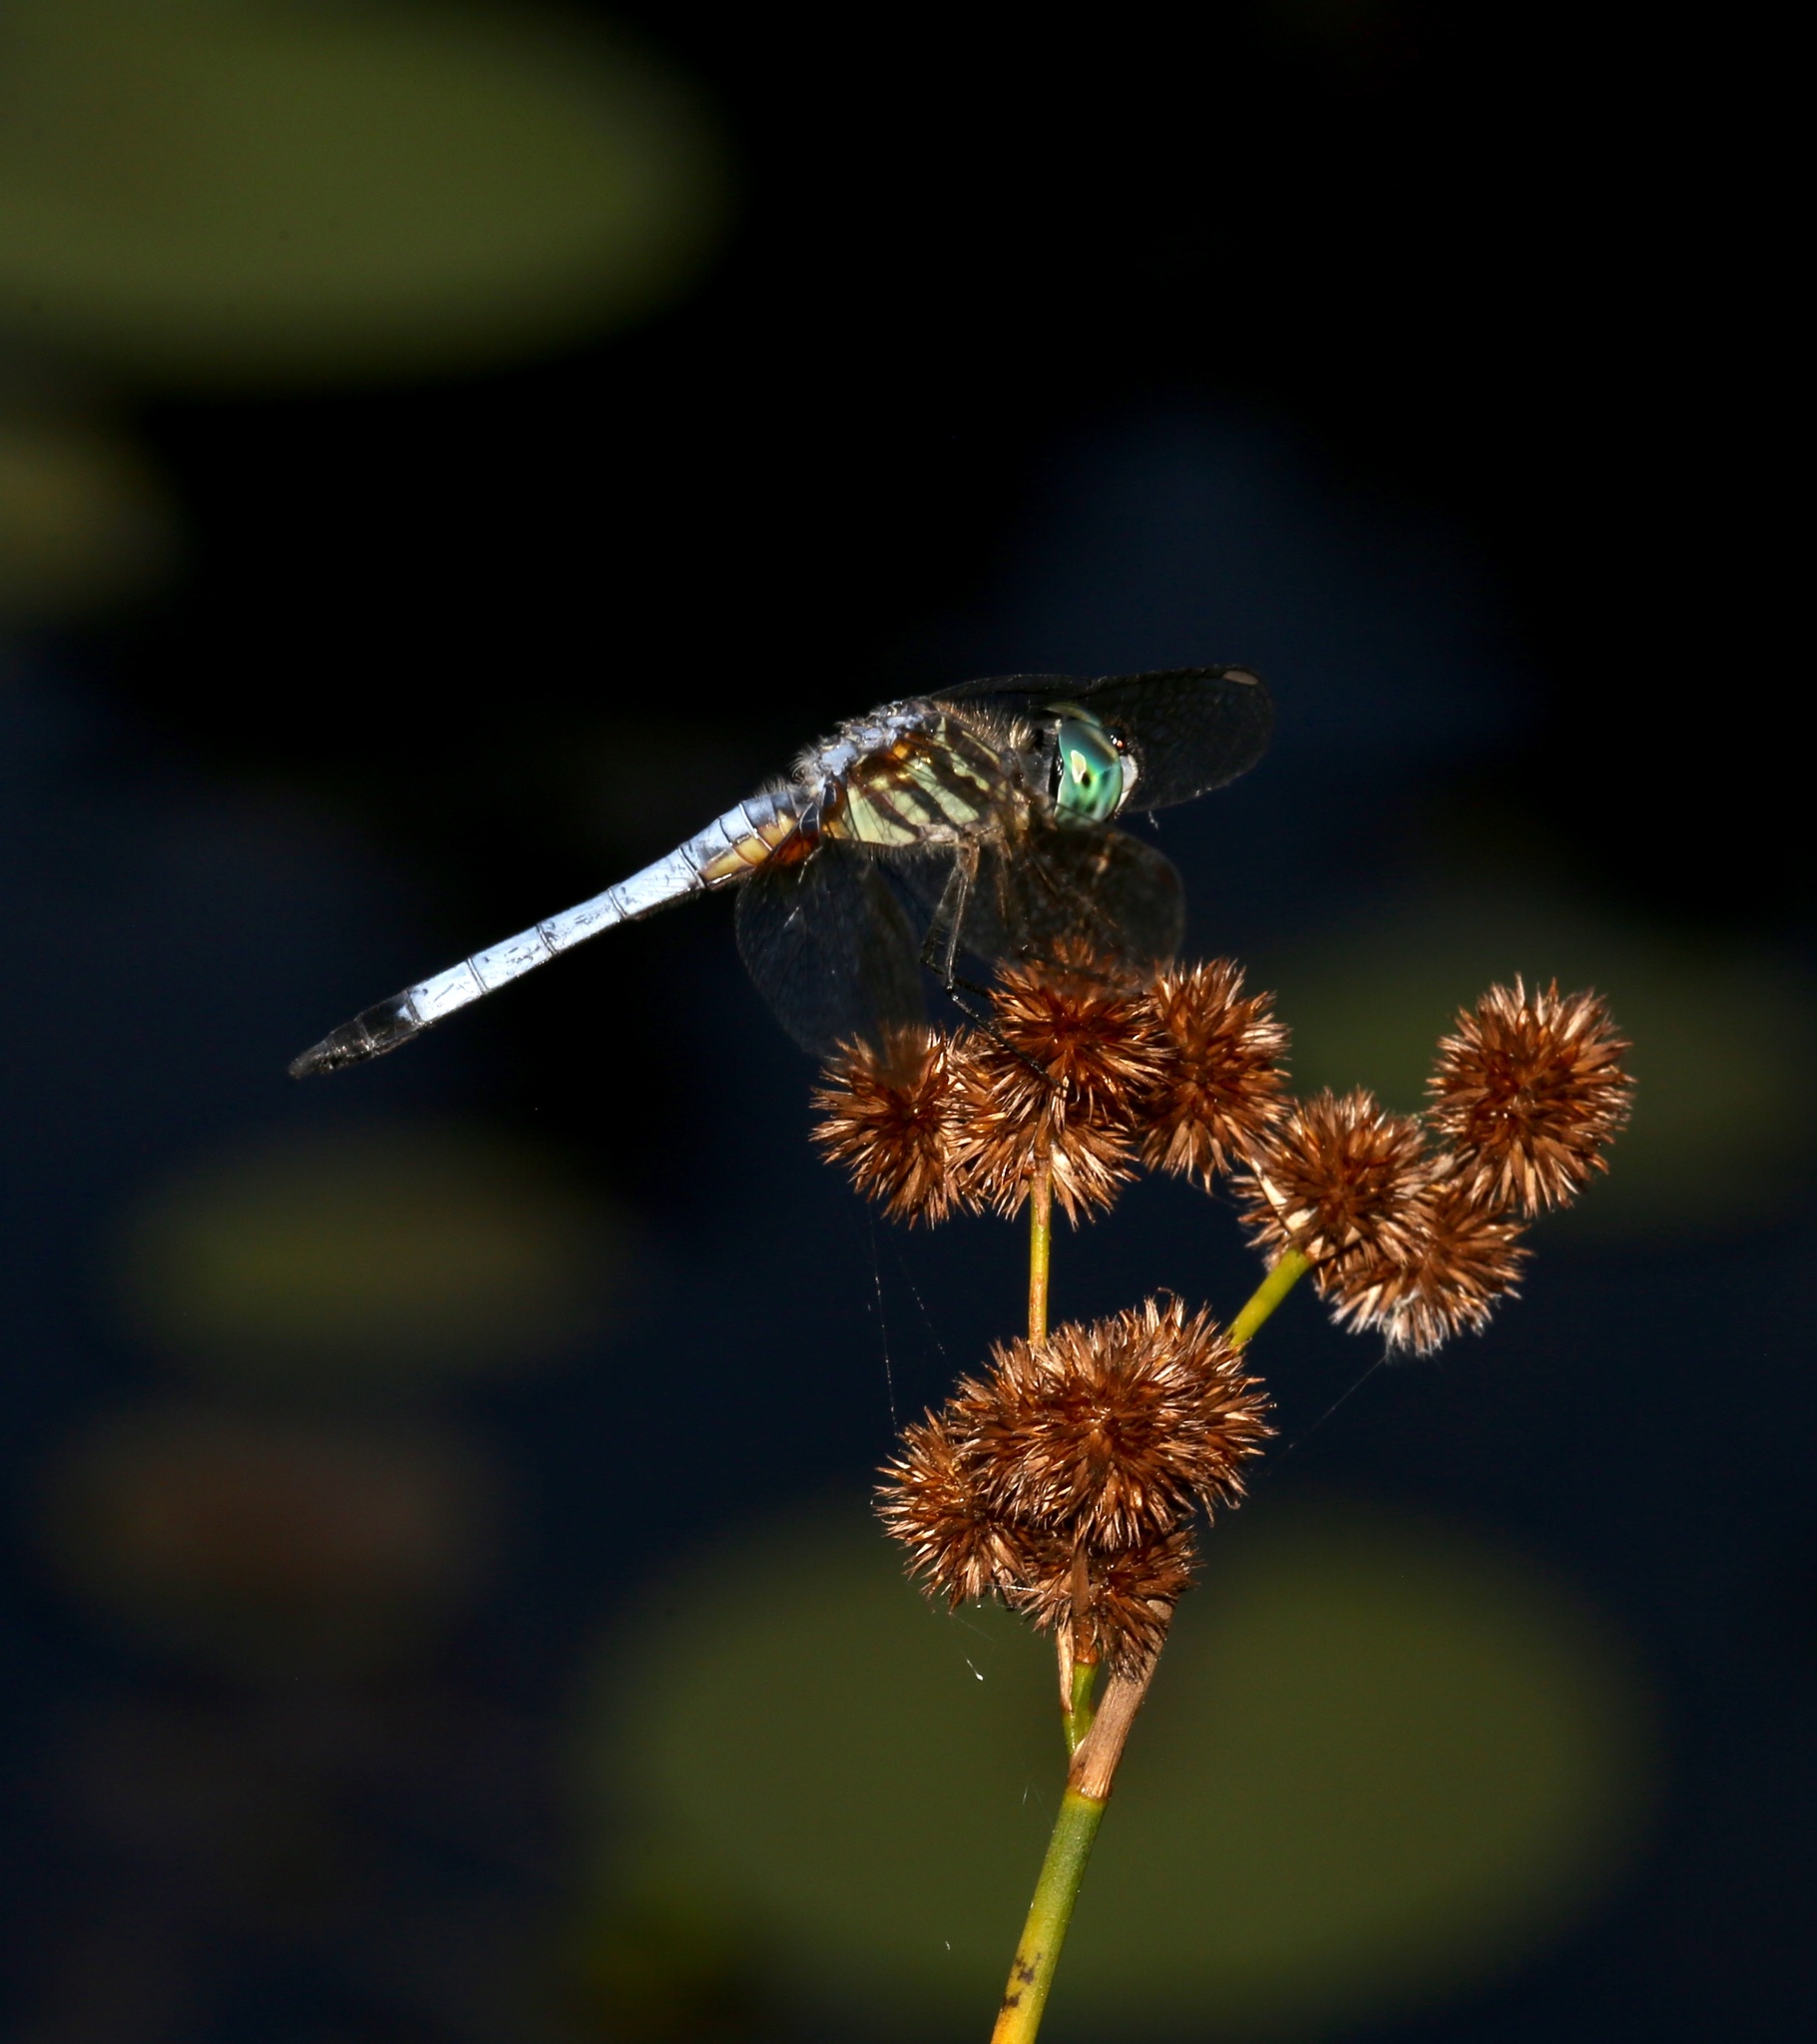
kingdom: Animalia
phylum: Arthropoda
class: Insecta
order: Odonata
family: Libellulidae
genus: Pachydiplax
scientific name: Pachydiplax longipennis
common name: Blue dasher
